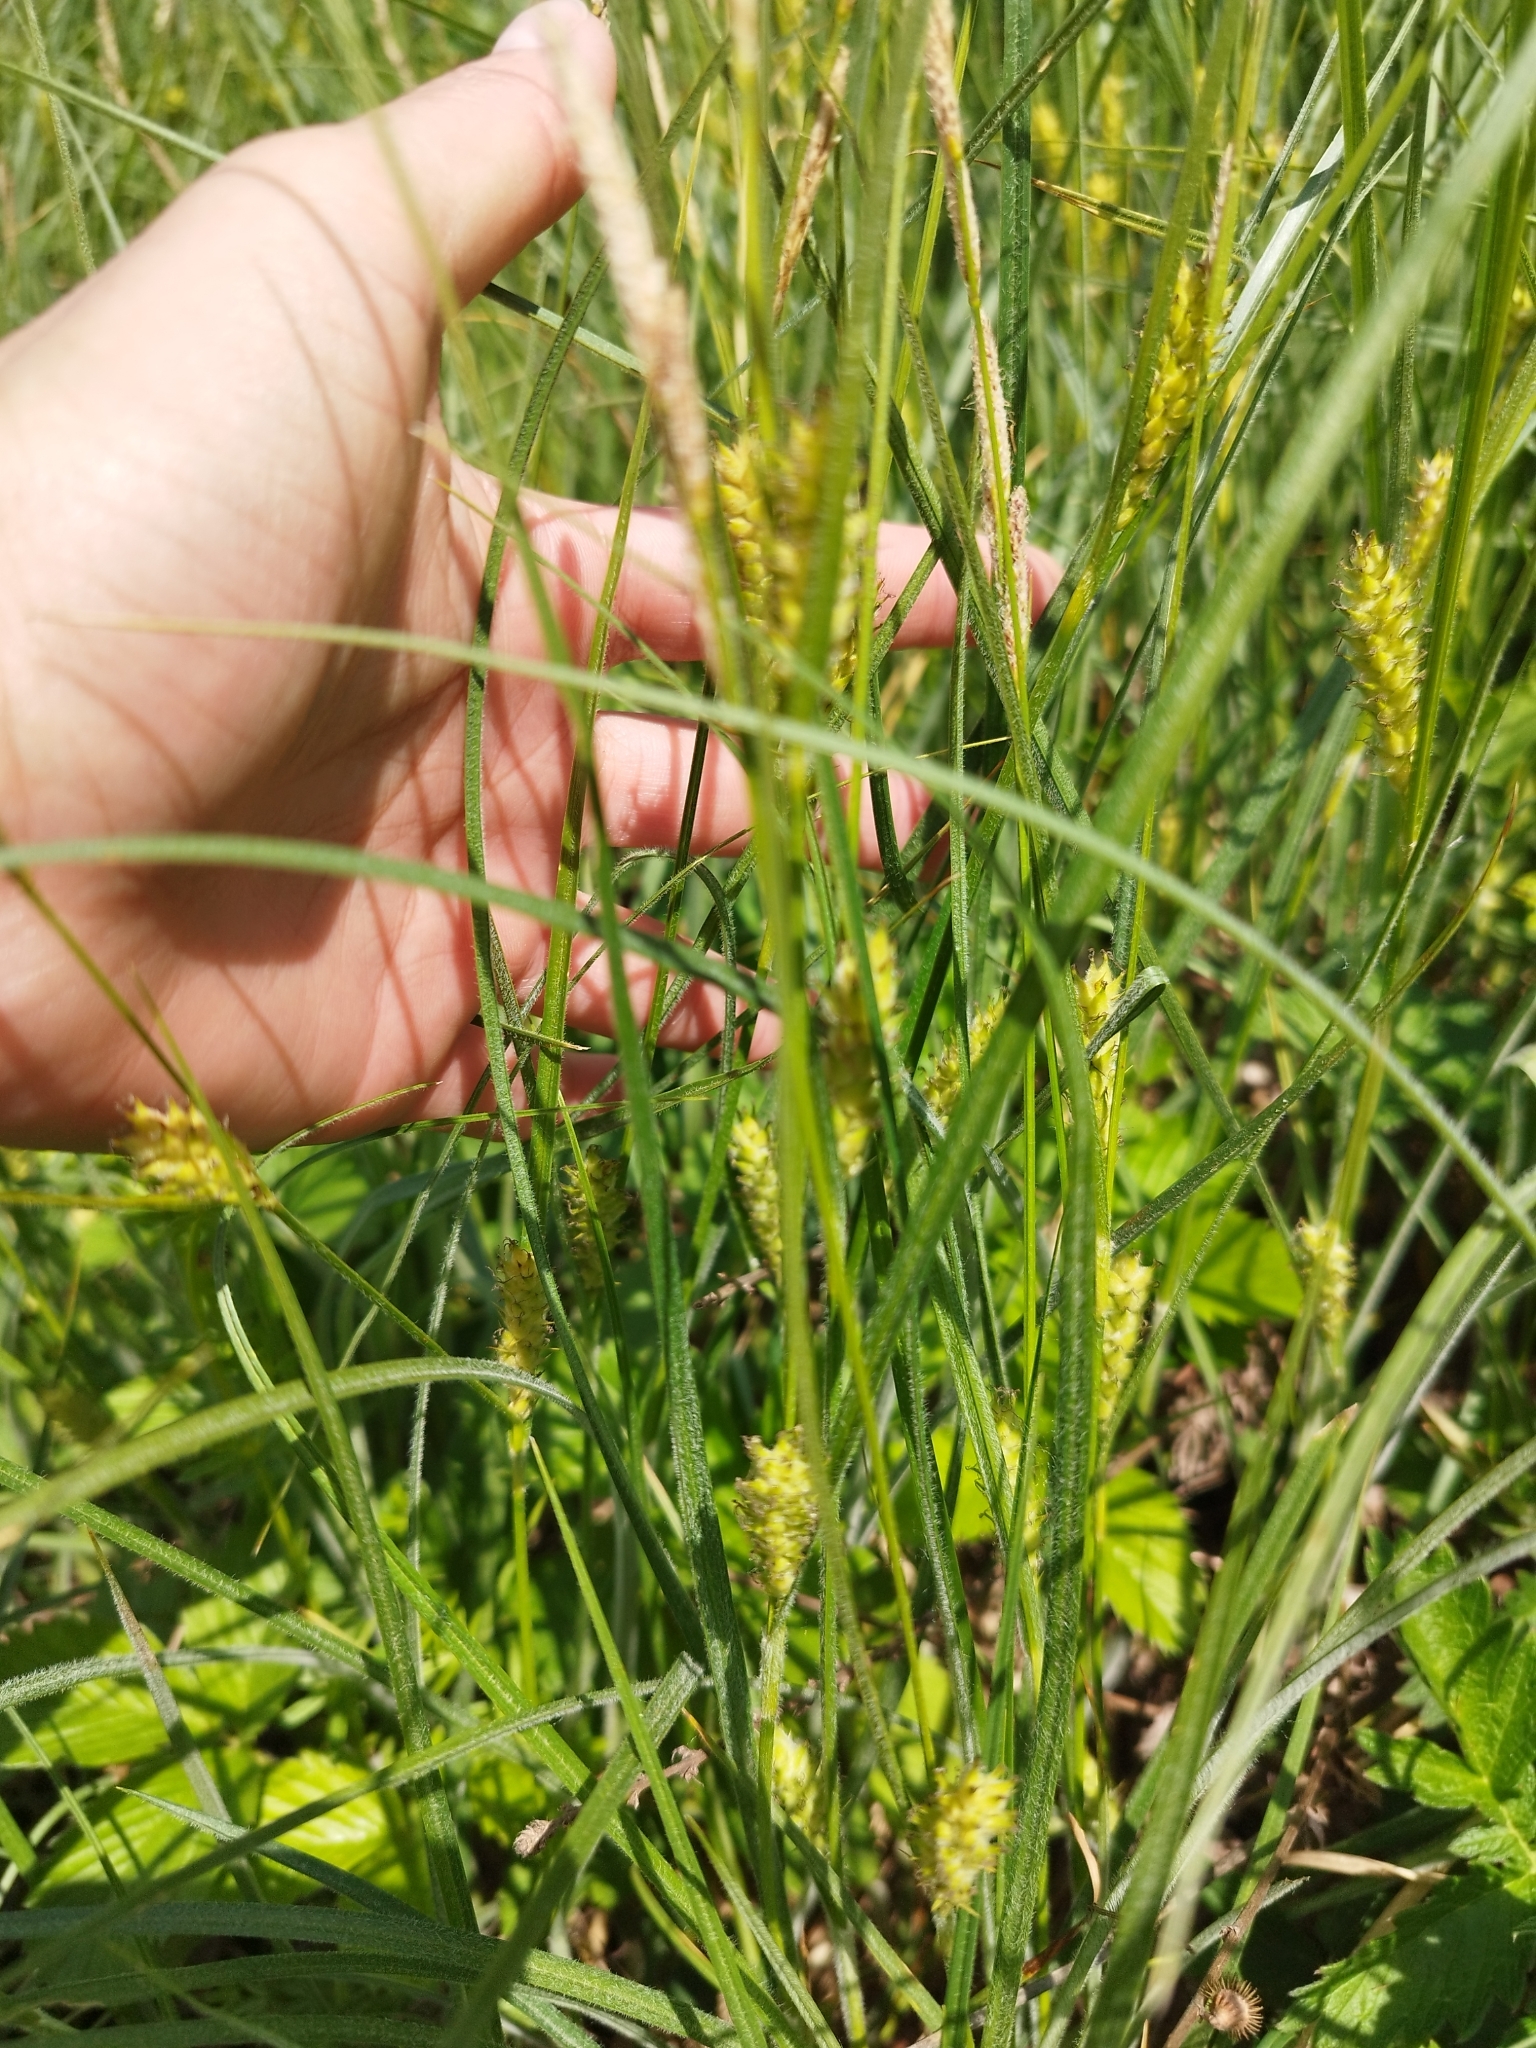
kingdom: Plantae
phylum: Tracheophyta
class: Liliopsida
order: Poales
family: Cyperaceae
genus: Carex
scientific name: Carex hirta
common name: Hairy sedge
